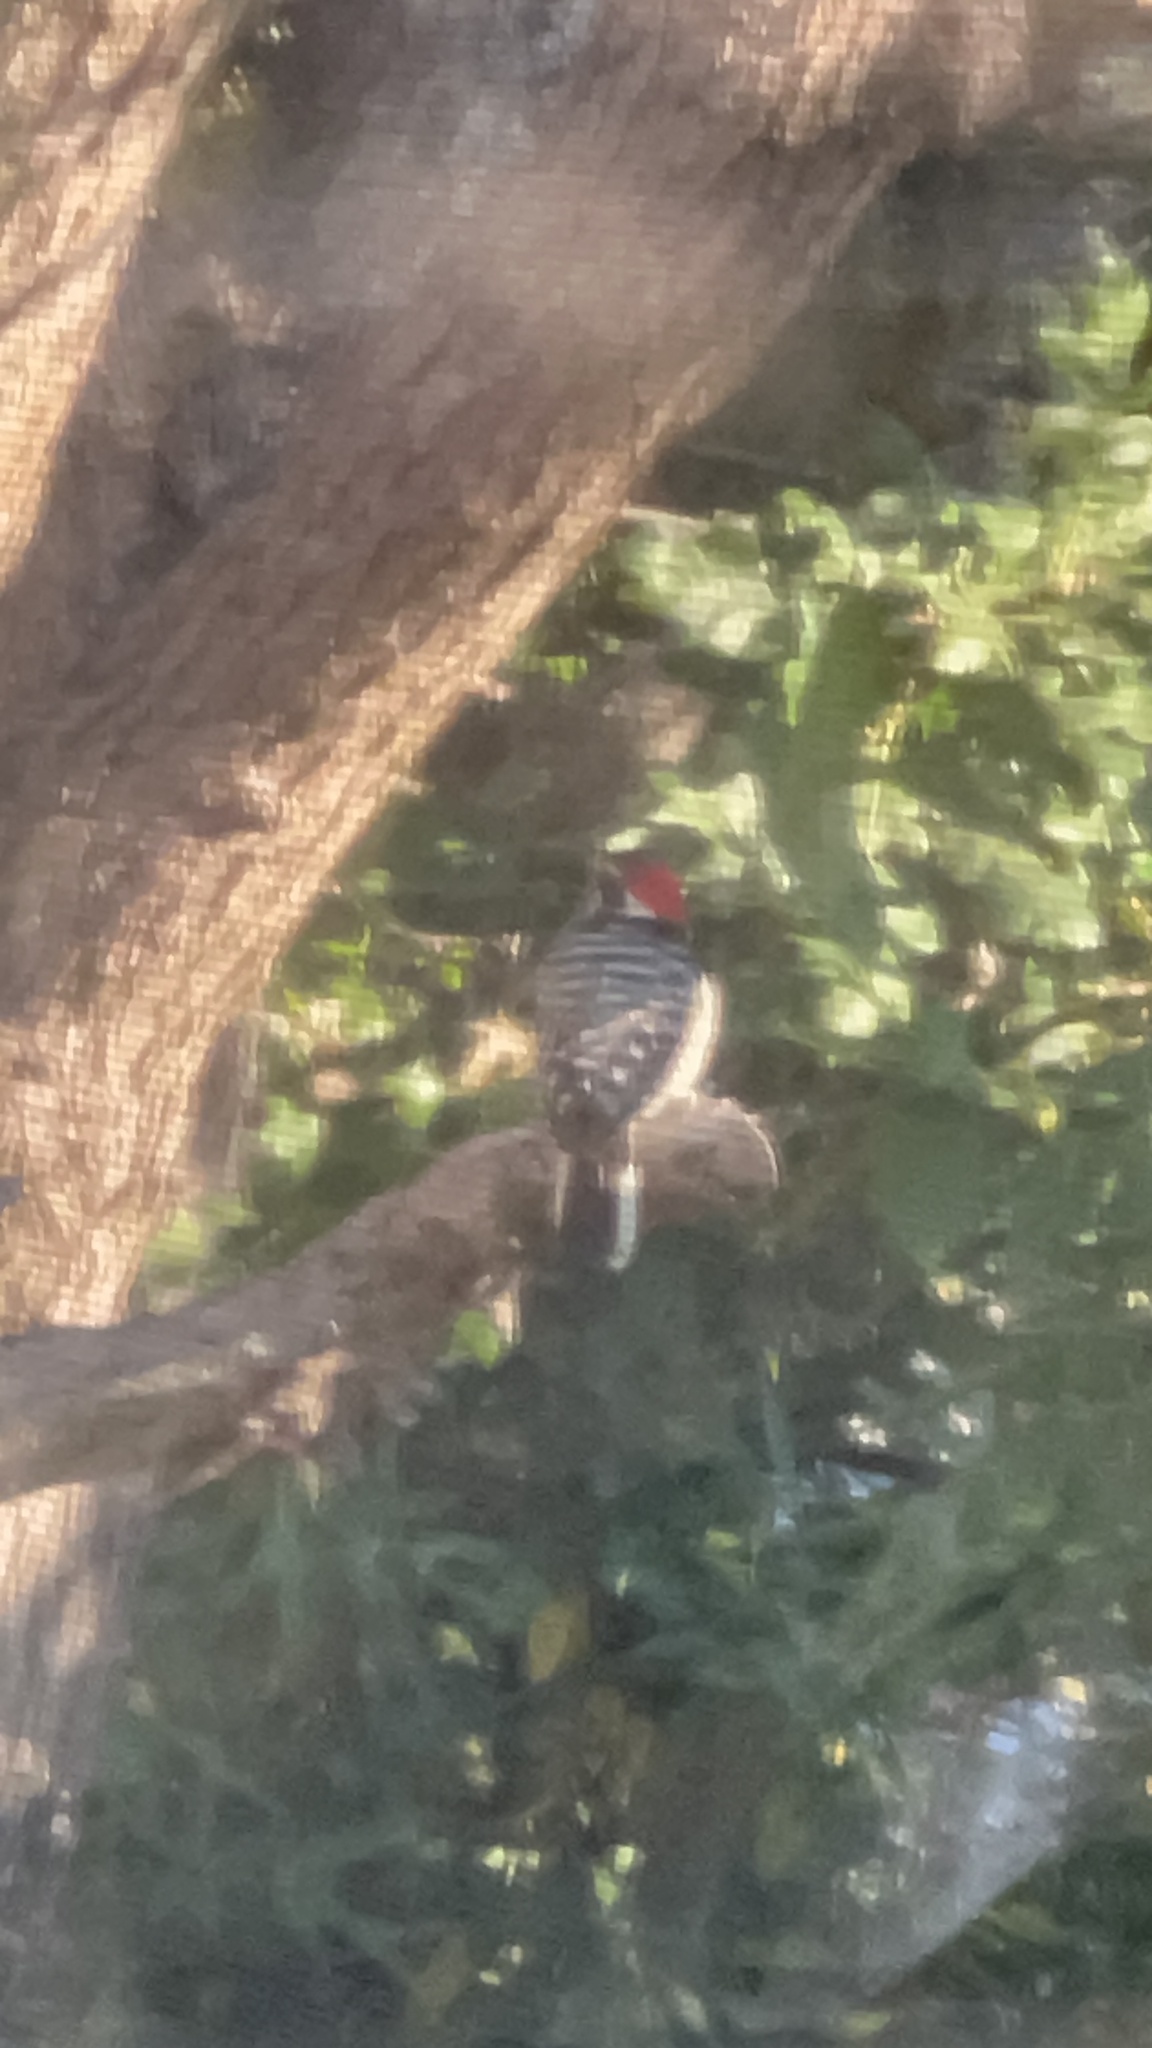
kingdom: Animalia
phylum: Chordata
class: Aves
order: Piciformes
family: Picidae
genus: Dryobates
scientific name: Dryobates nuttallii
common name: Nuttall's woodpecker
